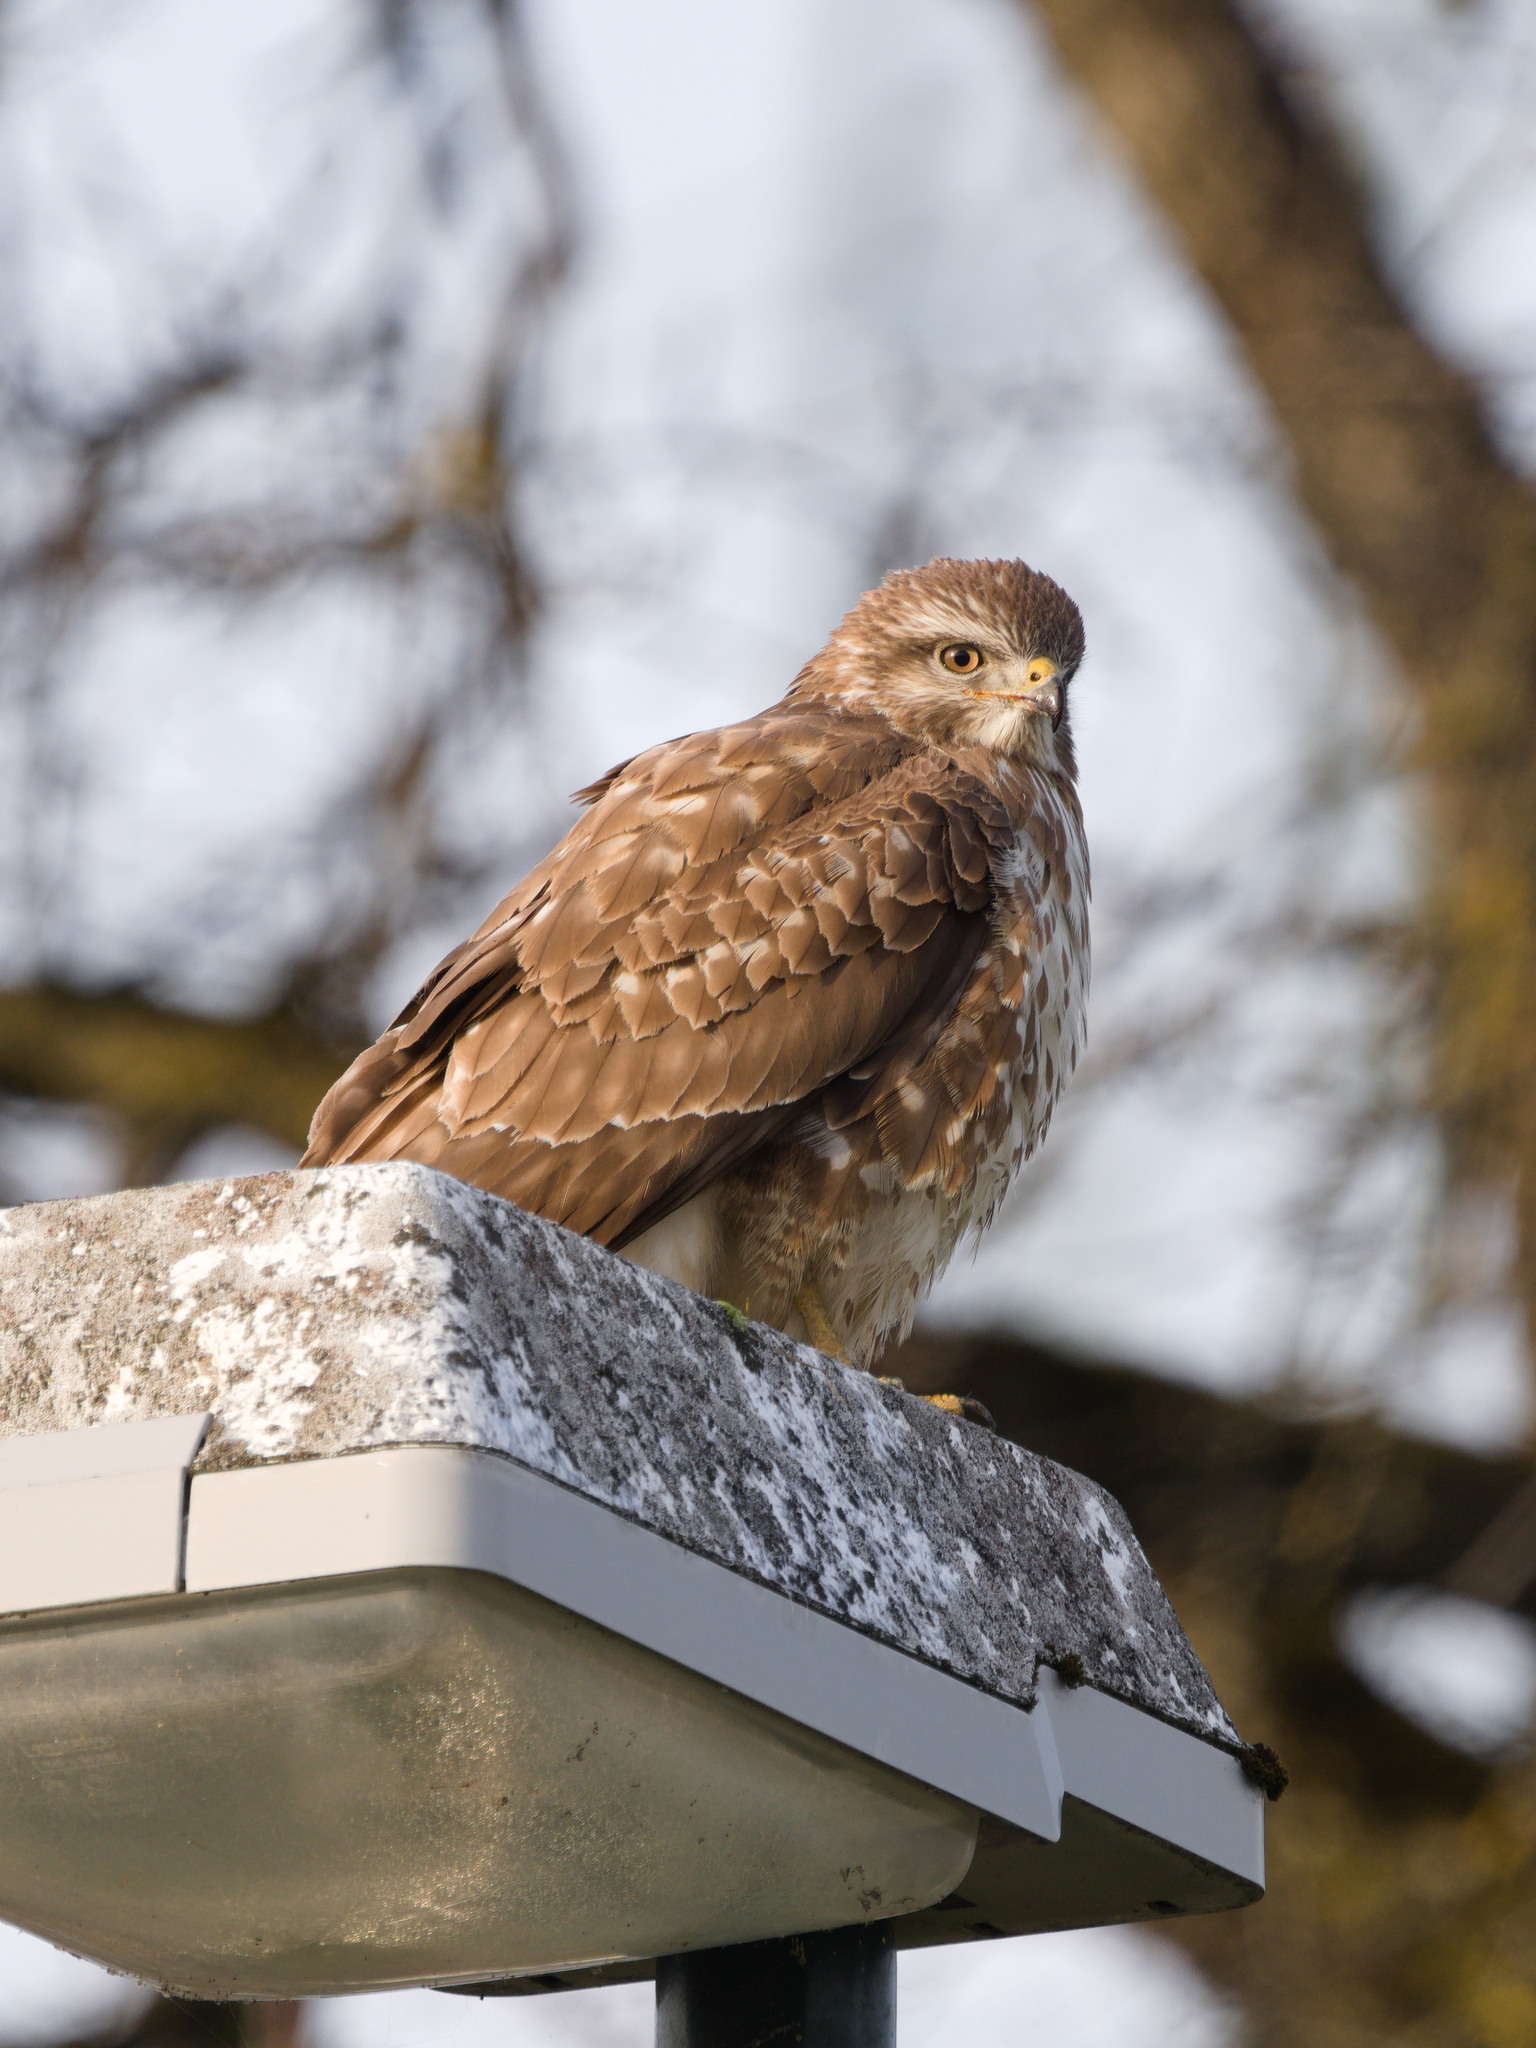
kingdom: Animalia
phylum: Chordata
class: Aves
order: Accipitriformes
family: Accipitridae
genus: Buteo
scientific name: Buteo buteo
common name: Common buzzard
